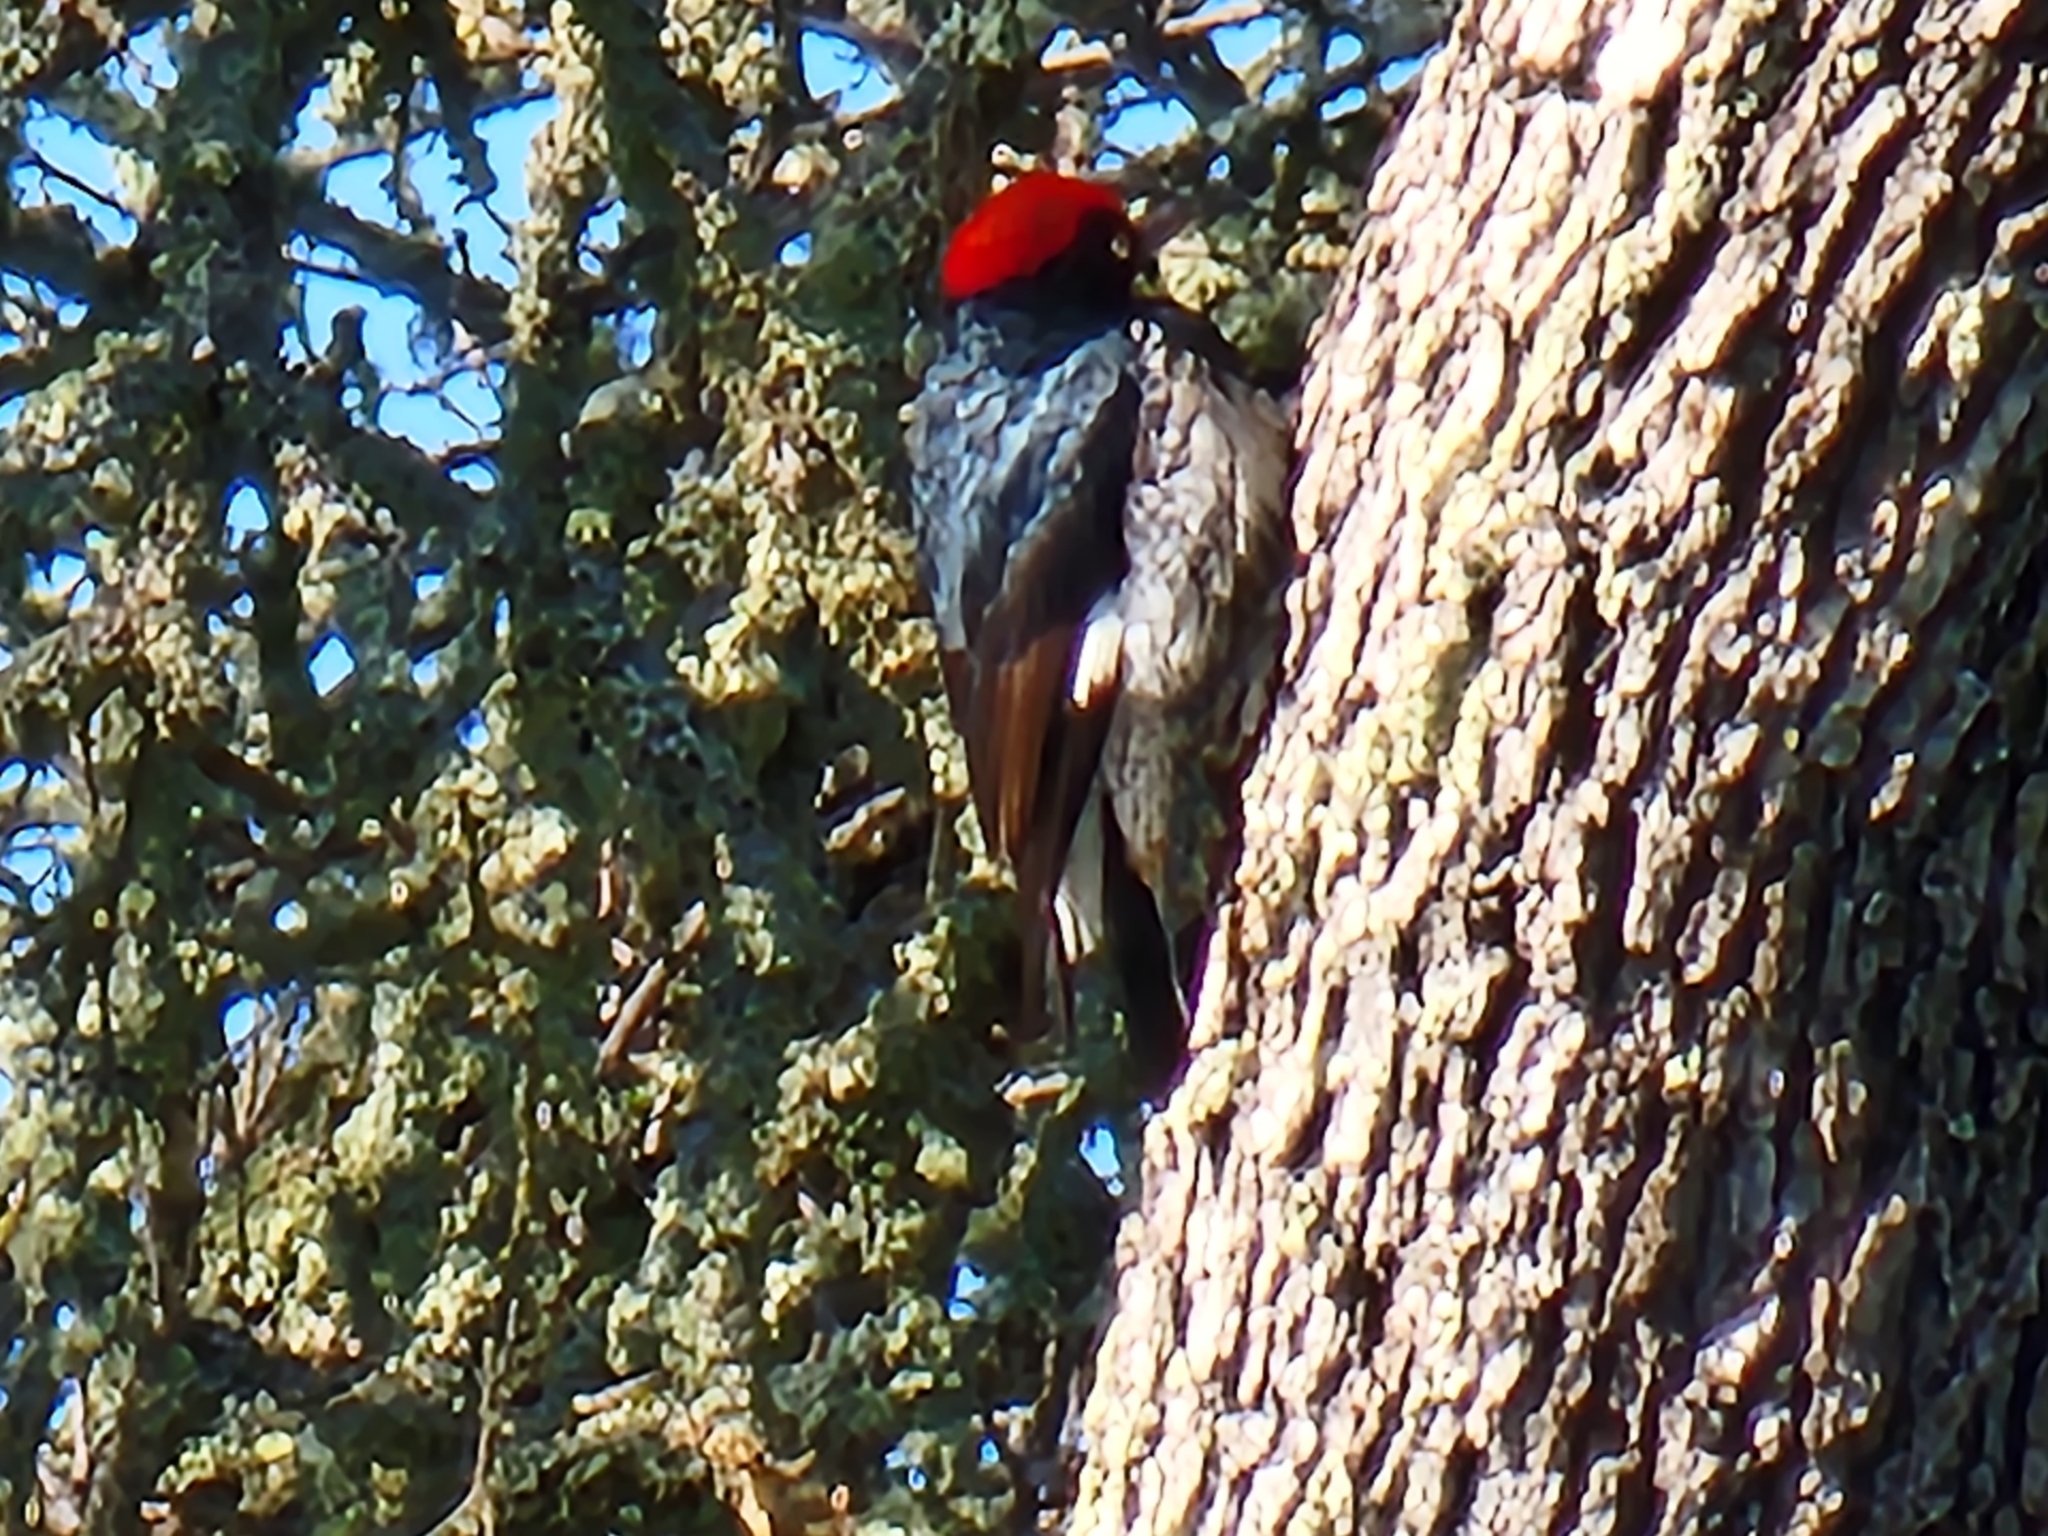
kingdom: Animalia
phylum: Chordata
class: Aves
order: Piciformes
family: Picidae
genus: Melanerpes
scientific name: Melanerpes formicivorus
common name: Acorn woodpecker
